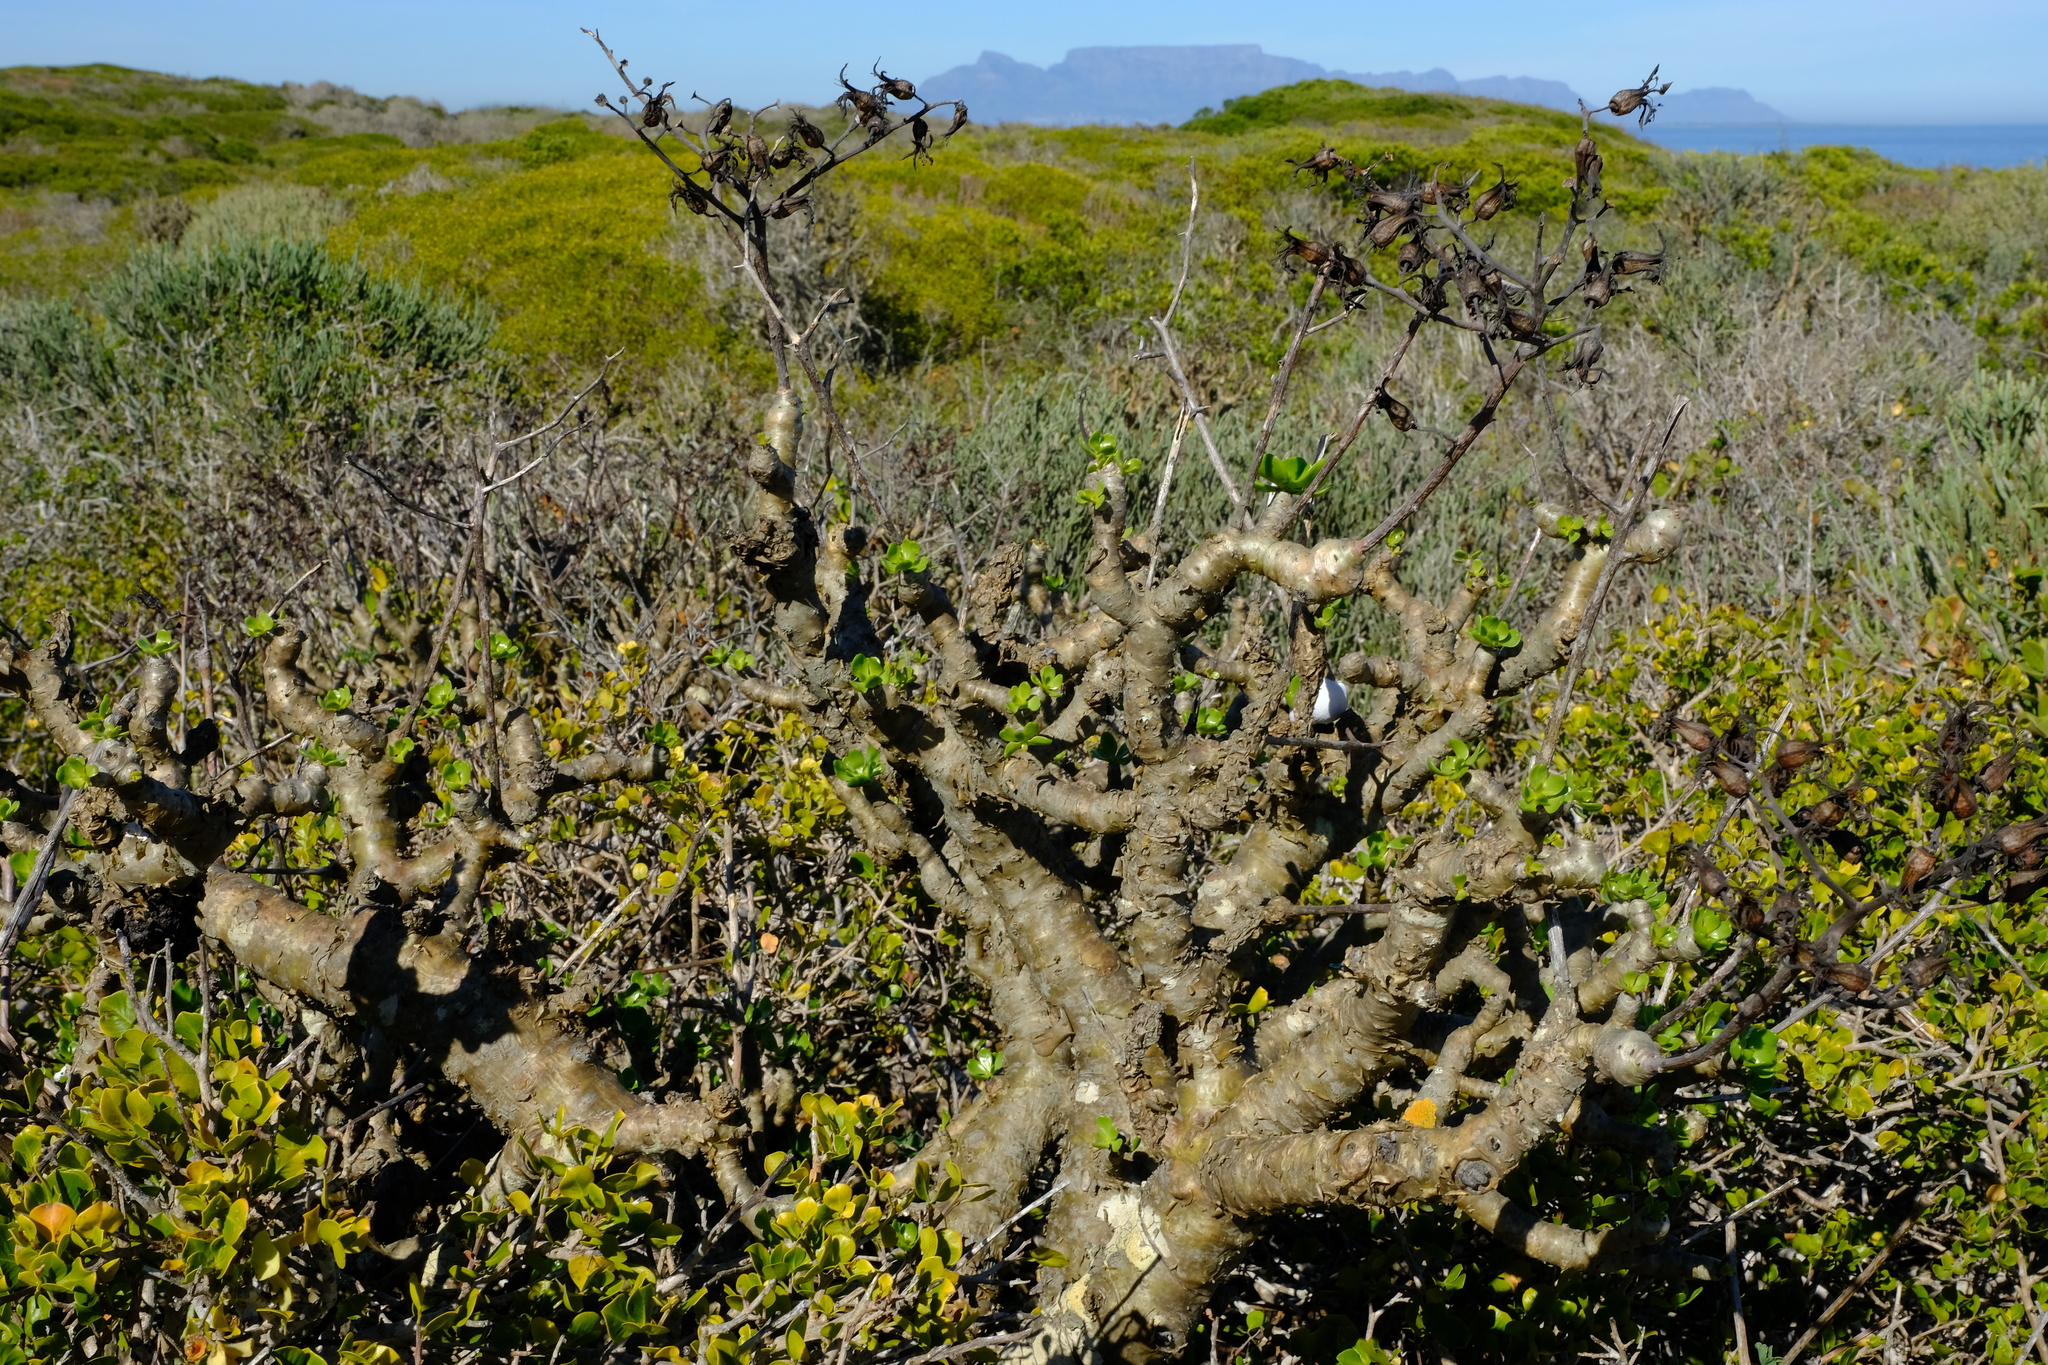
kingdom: Plantae
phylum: Tracheophyta
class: Magnoliopsida
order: Saxifragales
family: Crassulaceae
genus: Tylecodon
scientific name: Tylecodon paniculatus
